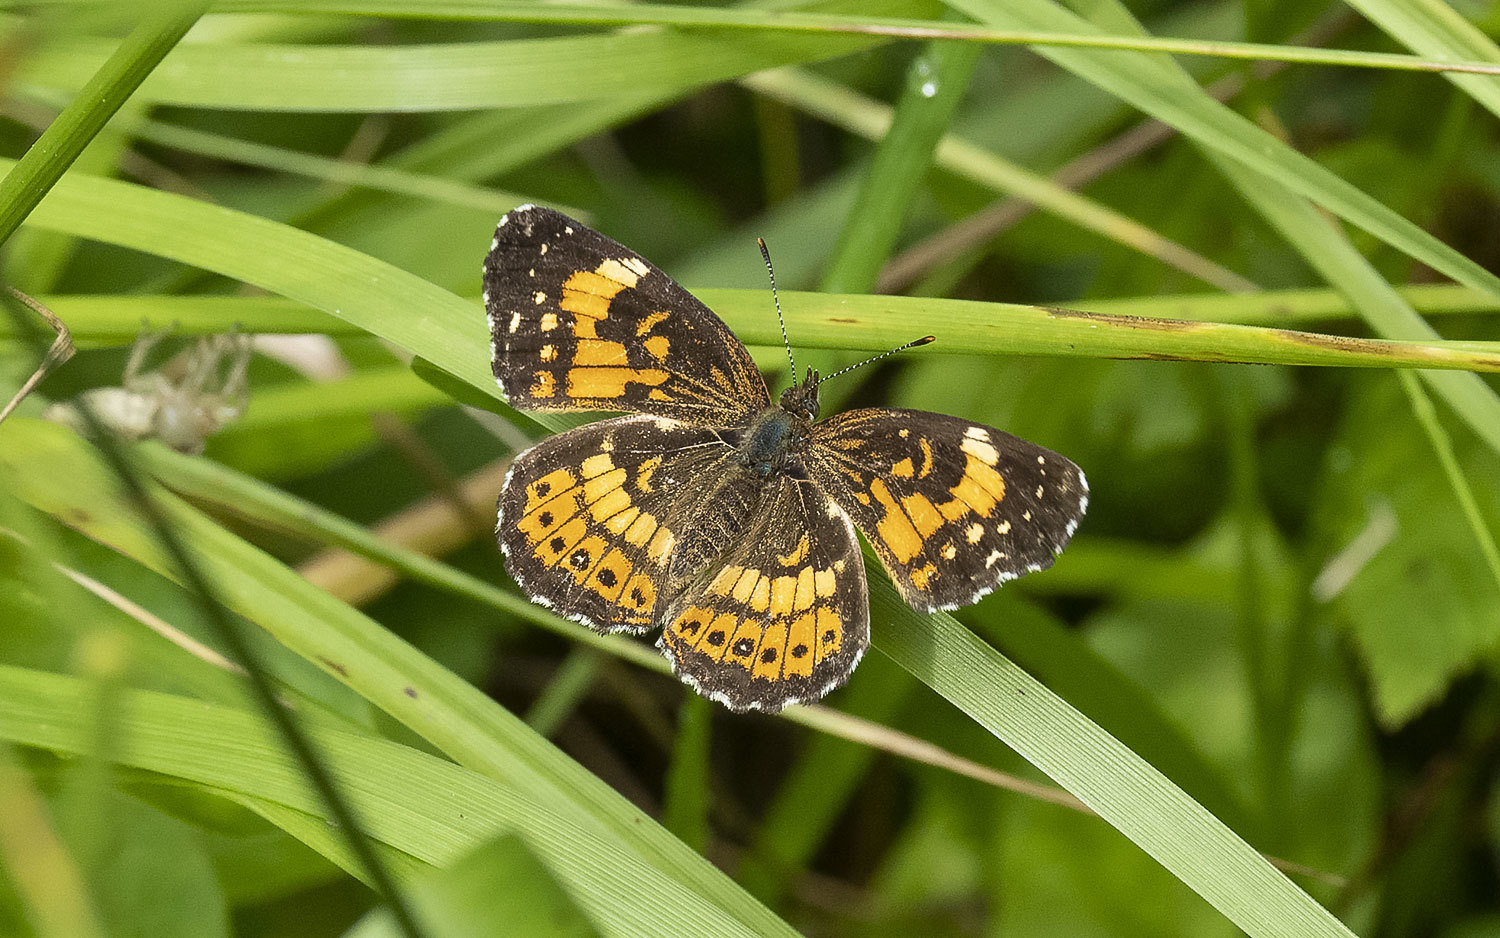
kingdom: Animalia
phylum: Arthropoda
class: Insecta
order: Lepidoptera
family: Nymphalidae
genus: Chlosyne
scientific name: Chlosyne nycteis
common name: Silvery checkerspot
